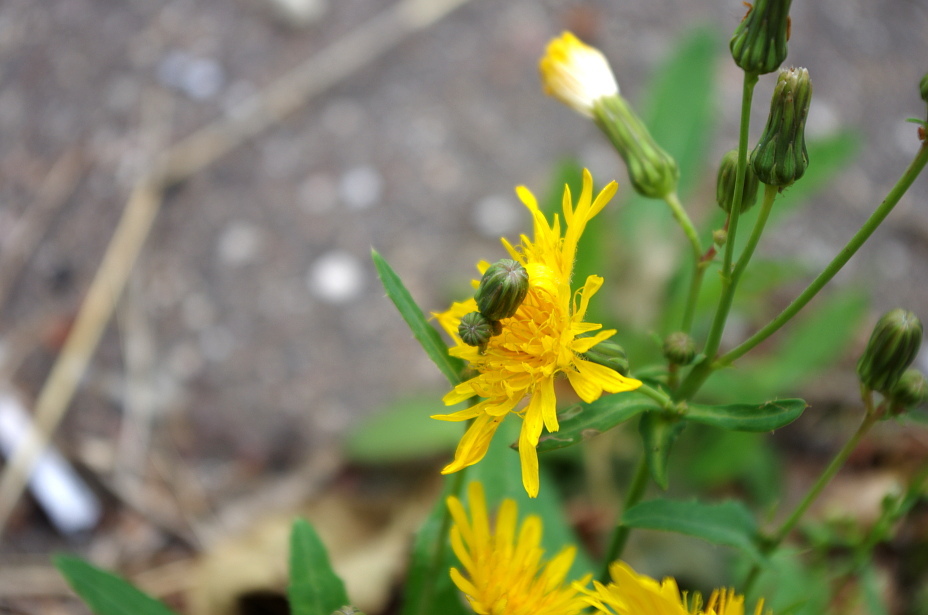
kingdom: Plantae
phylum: Tracheophyta
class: Magnoliopsida
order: Asterales
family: Asteraceae
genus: Sonchus
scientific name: Sonchus arvensis
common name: Perennial sow-thistle
